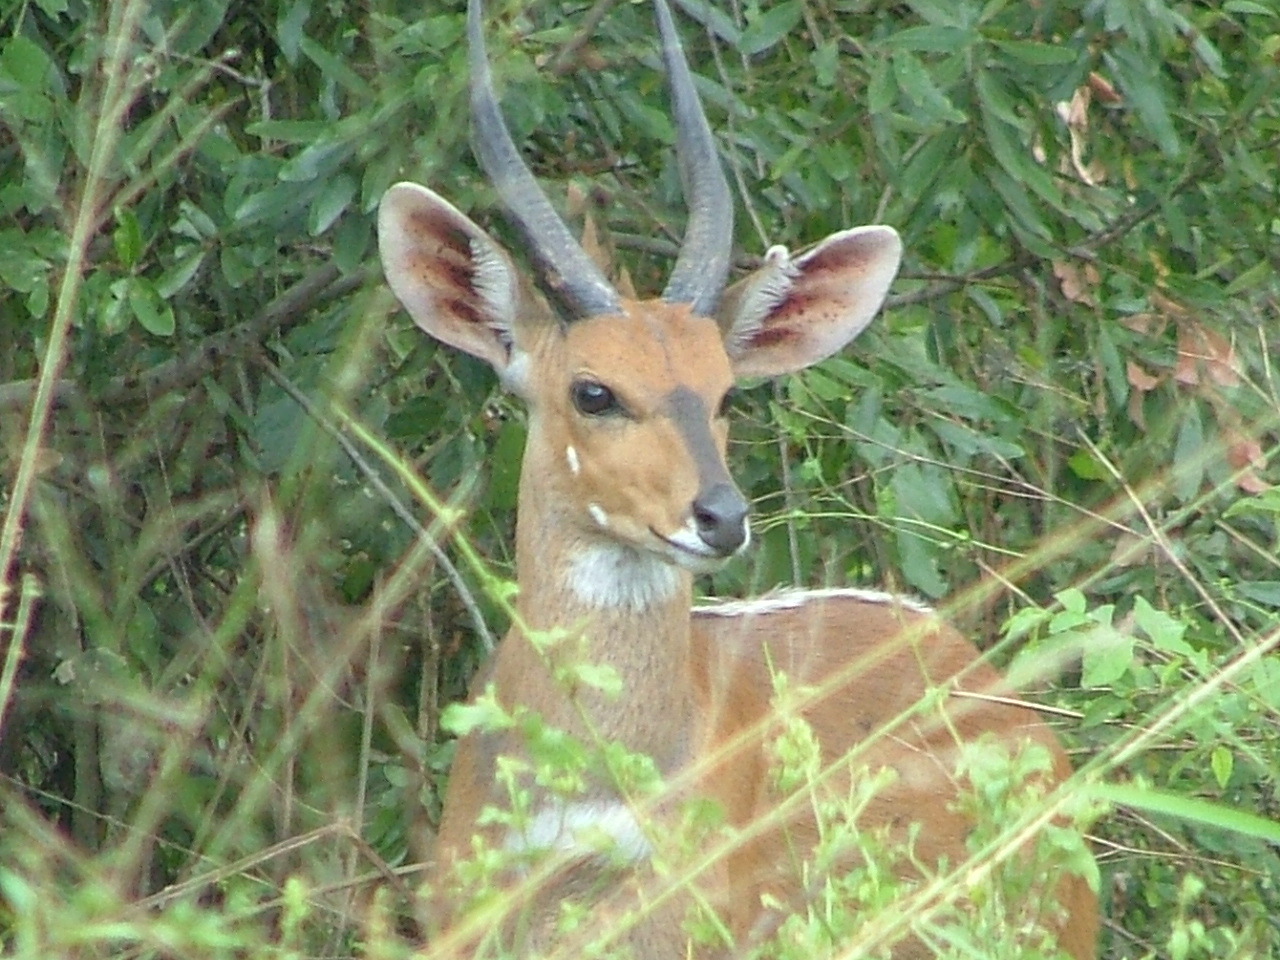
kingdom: Animalia
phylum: Chordata
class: Mammalia
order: Artiodactyla
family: Bovidae
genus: Tragelaphus
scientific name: Tragelaphus scriptus
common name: Bushbuck
